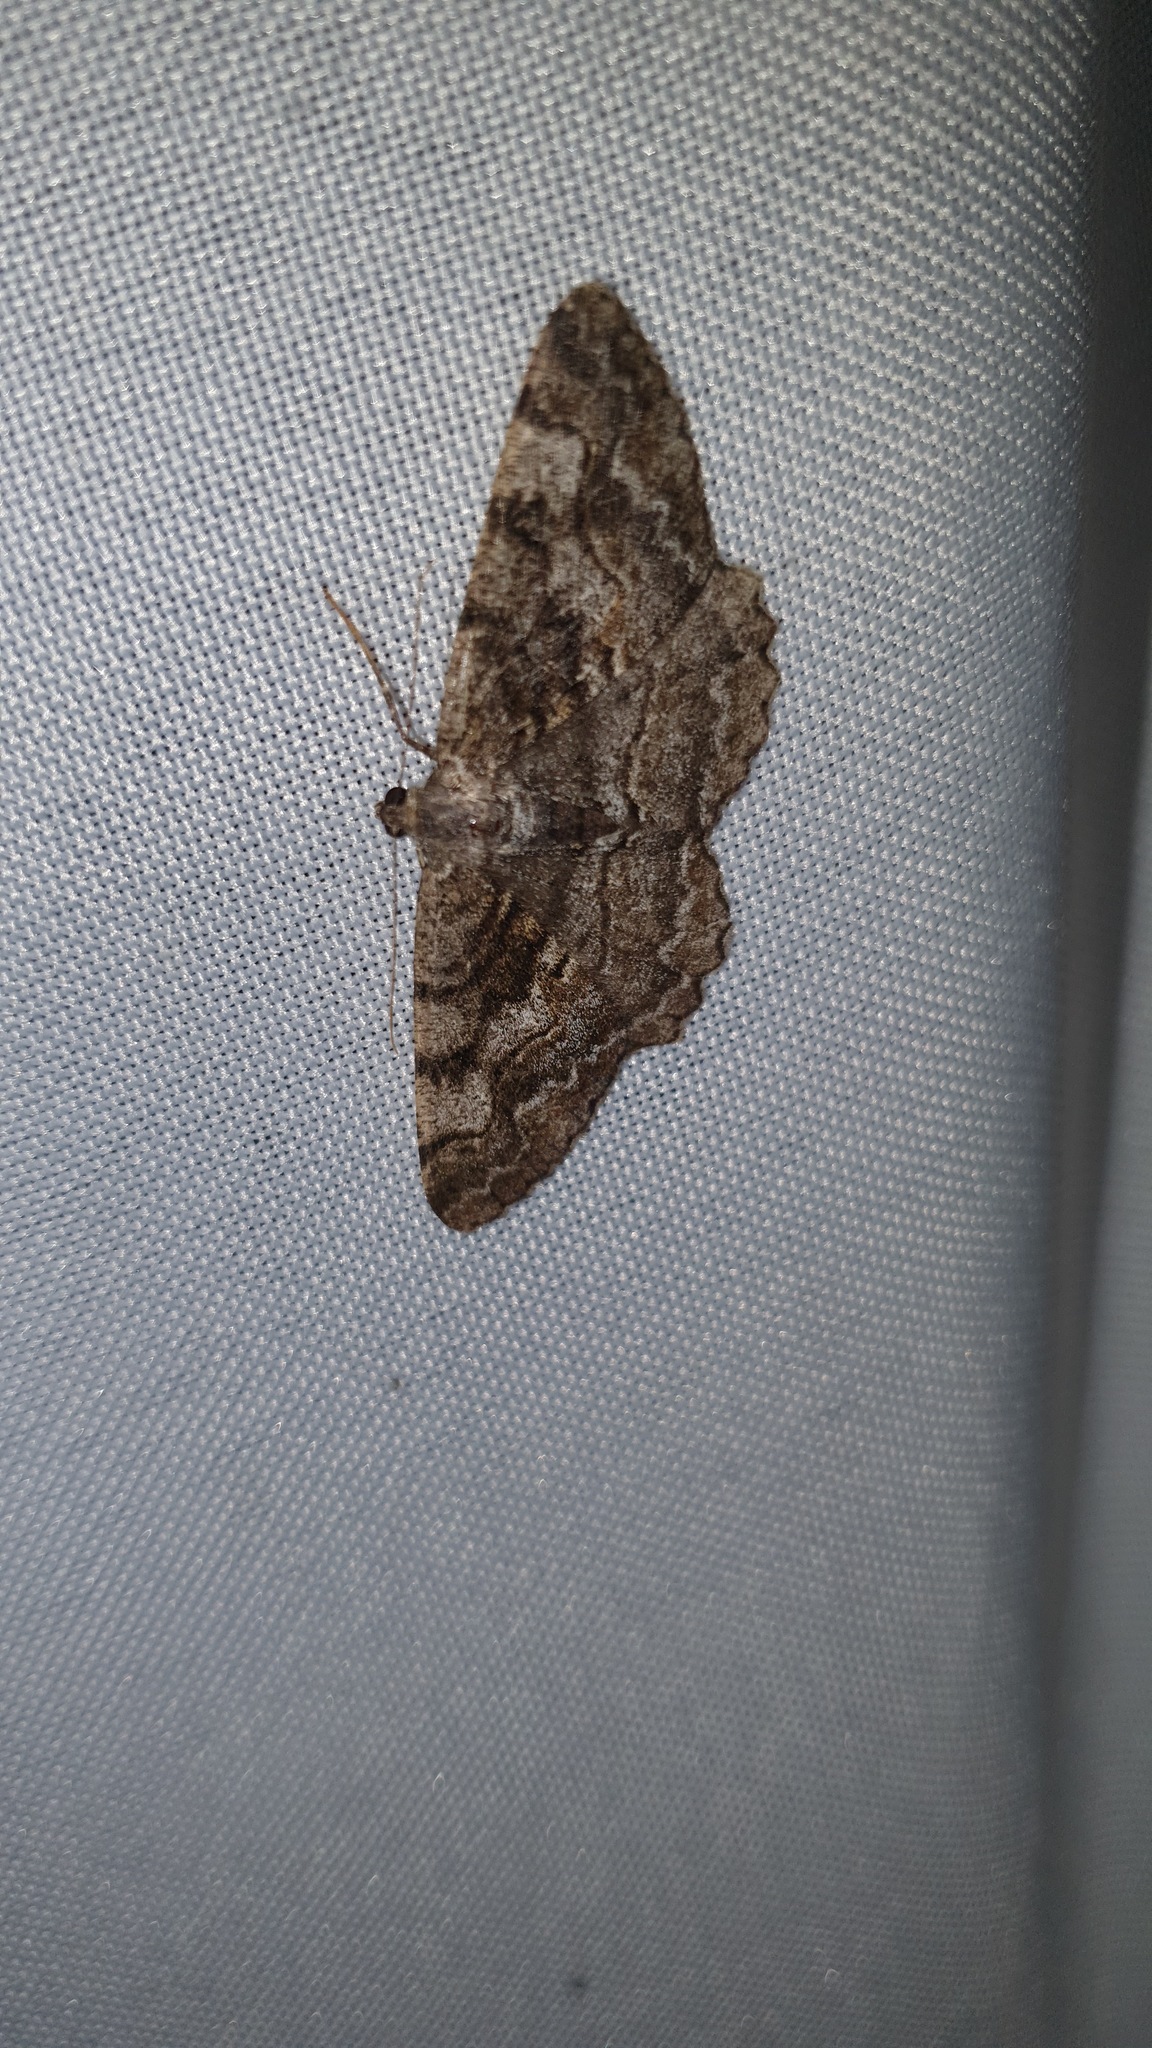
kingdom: Animalia
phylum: Arthropoda
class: Insecta
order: Lepidoptera
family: Geometridae
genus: Alcis
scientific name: Alcis repandata
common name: Mottled beauty
